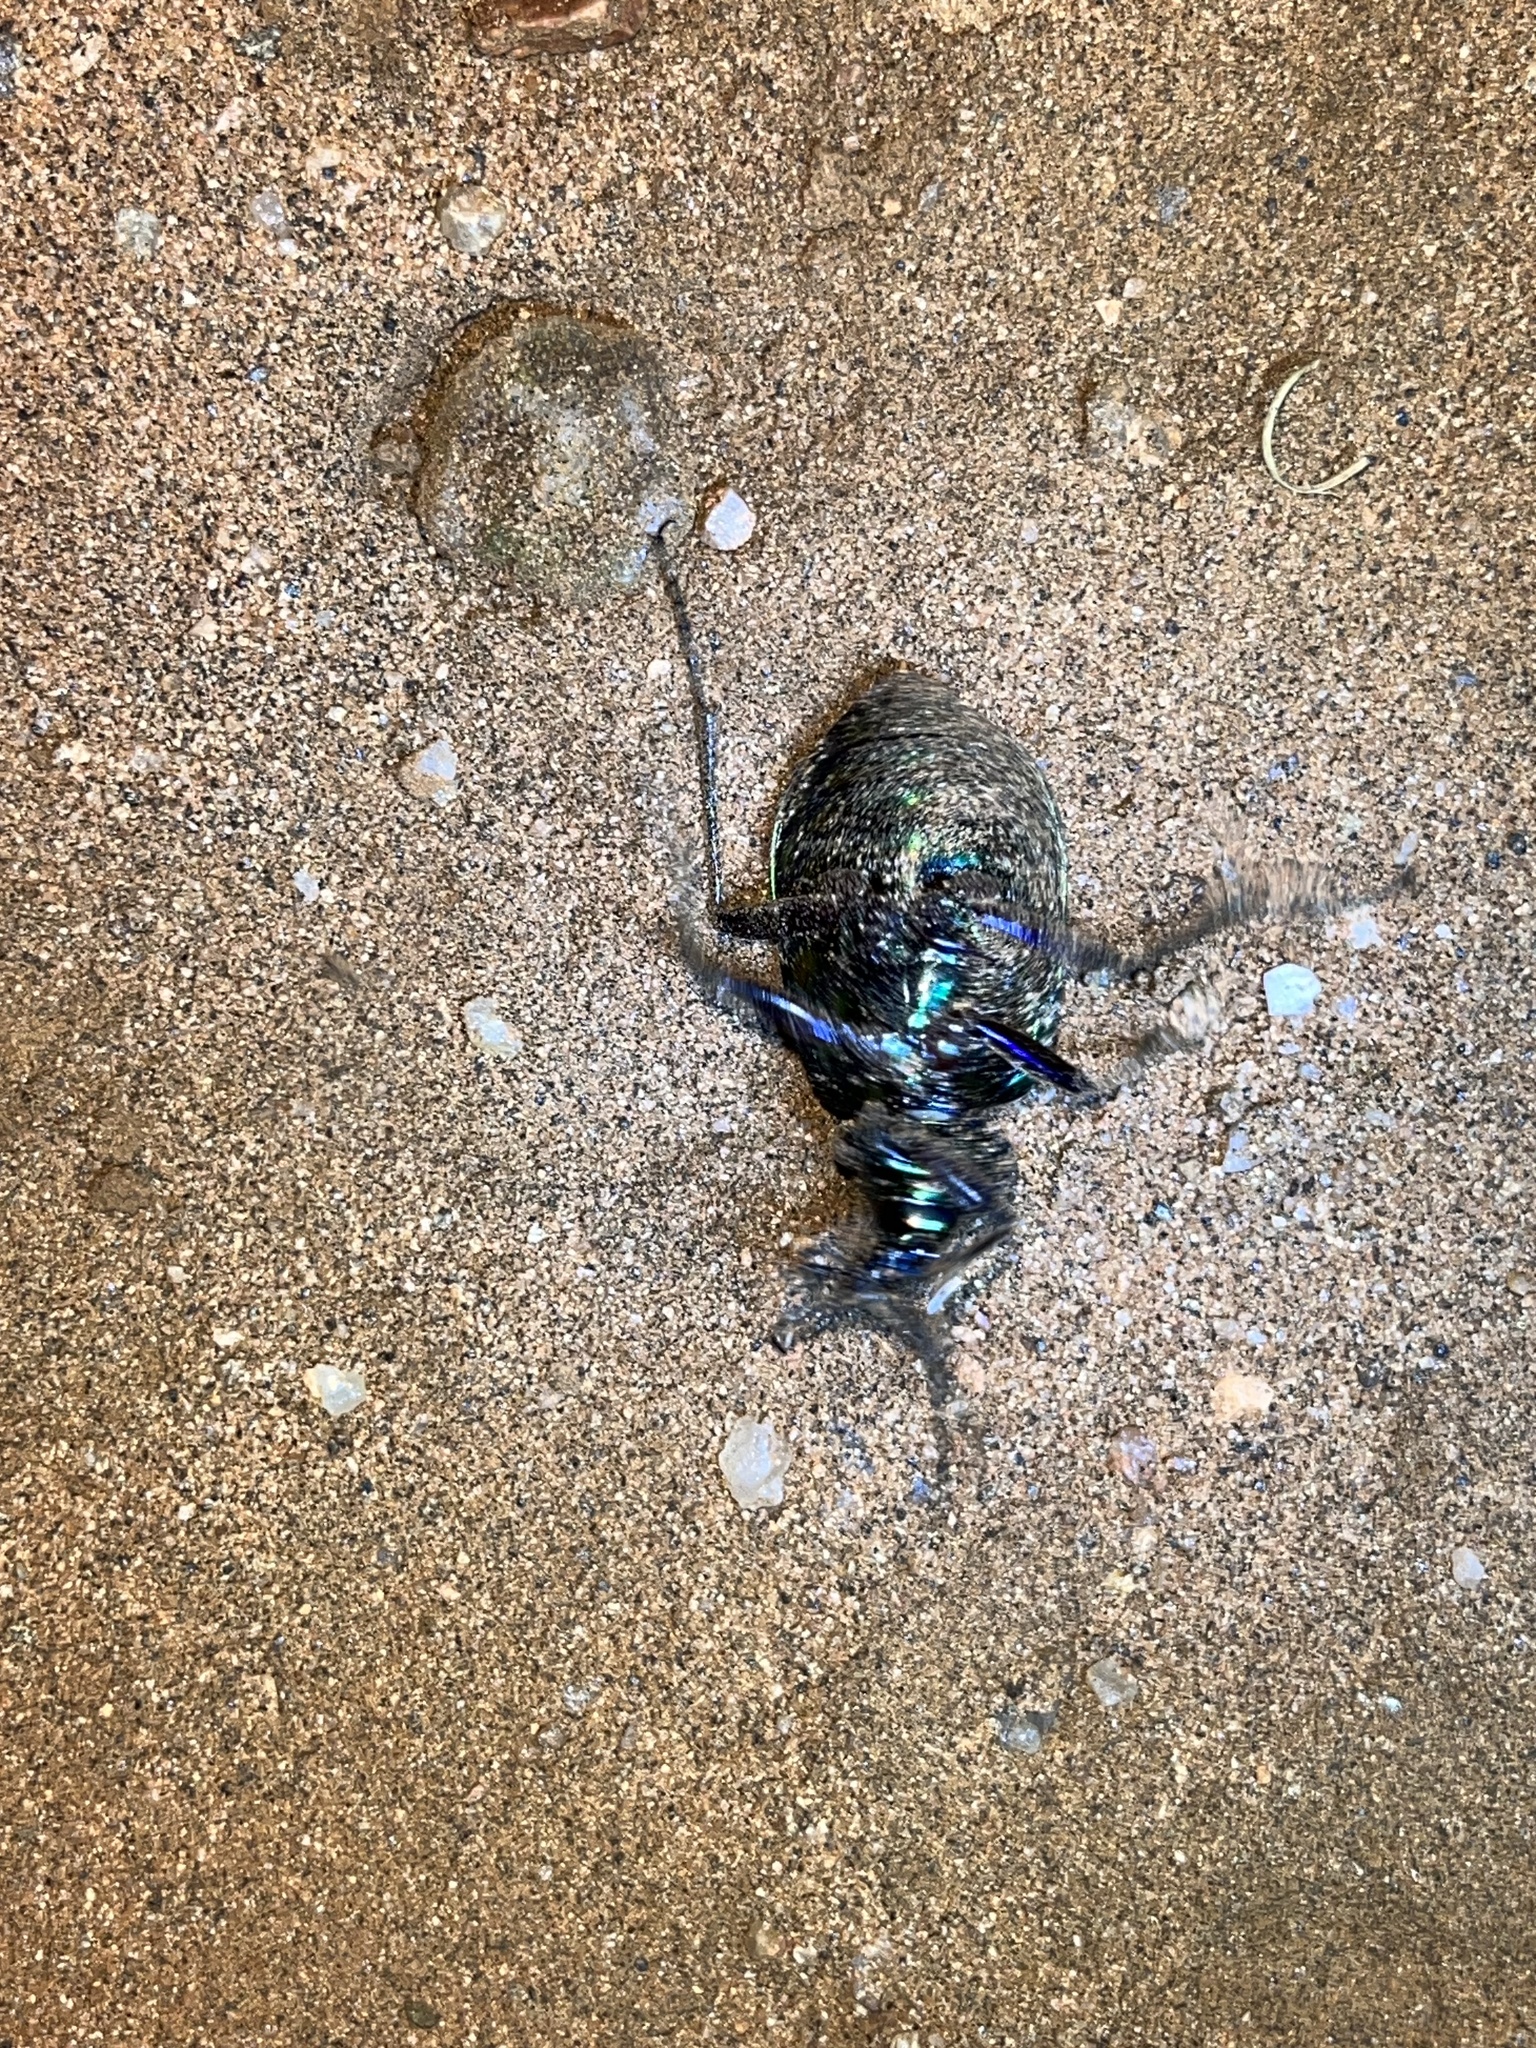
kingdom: Animalia
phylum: Arthropoda
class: Insecta
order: Coleoptera
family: Carabidae
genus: Calosoma
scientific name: Calosoma scrutator
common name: Fiery searcher beetle
